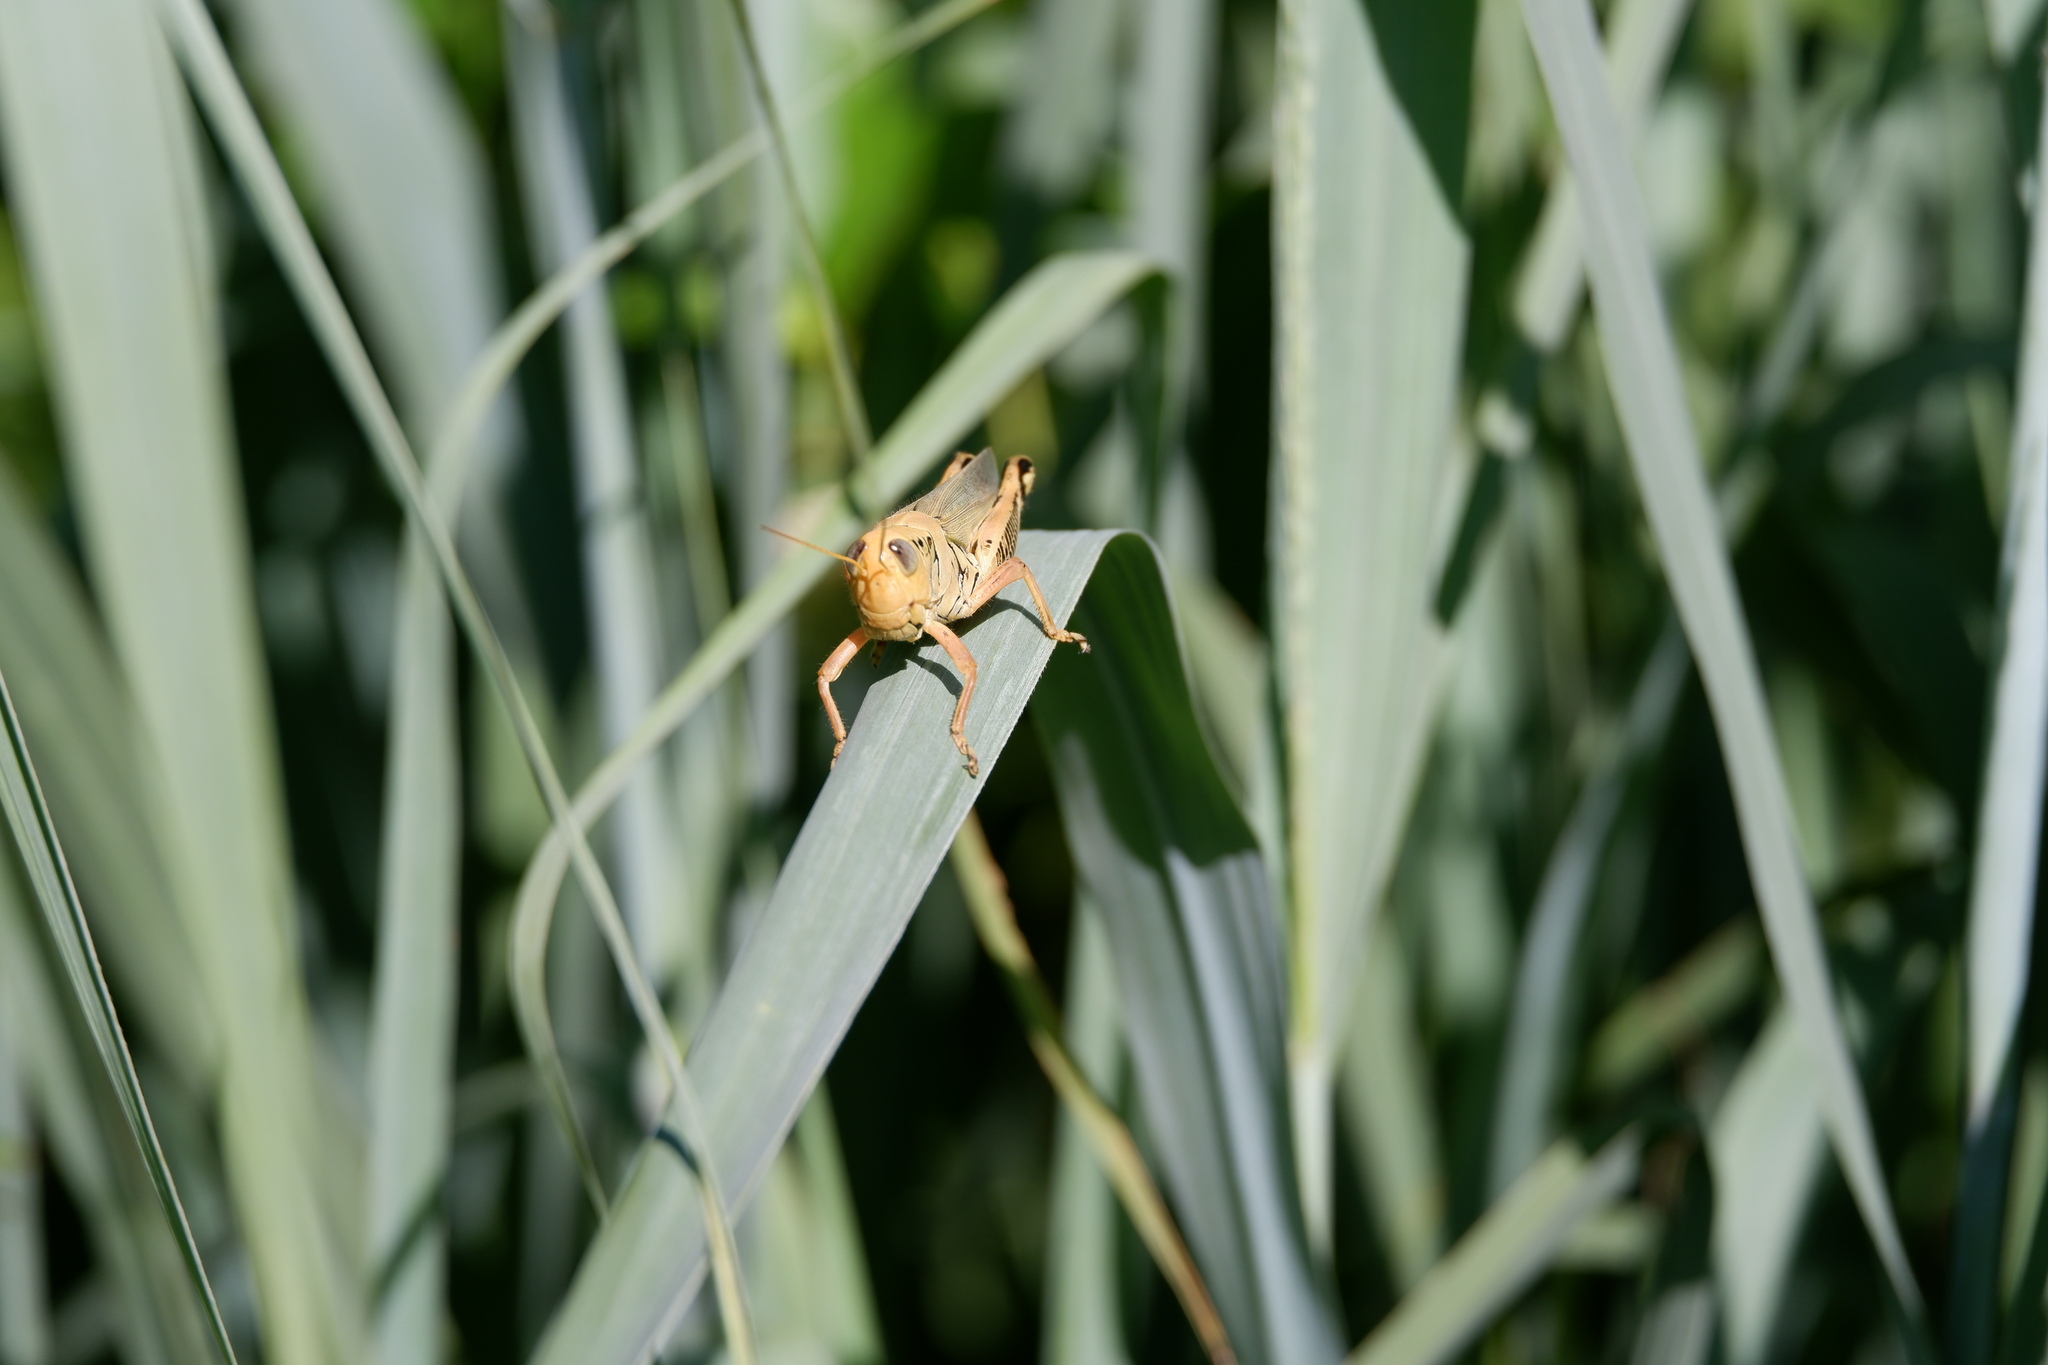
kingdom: Animalia
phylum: Arthropoda
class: Insecta
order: Orthoptera
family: Acrididae
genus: Melanoplus
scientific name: Melanoplus differentialis
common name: Differential grasshopper
